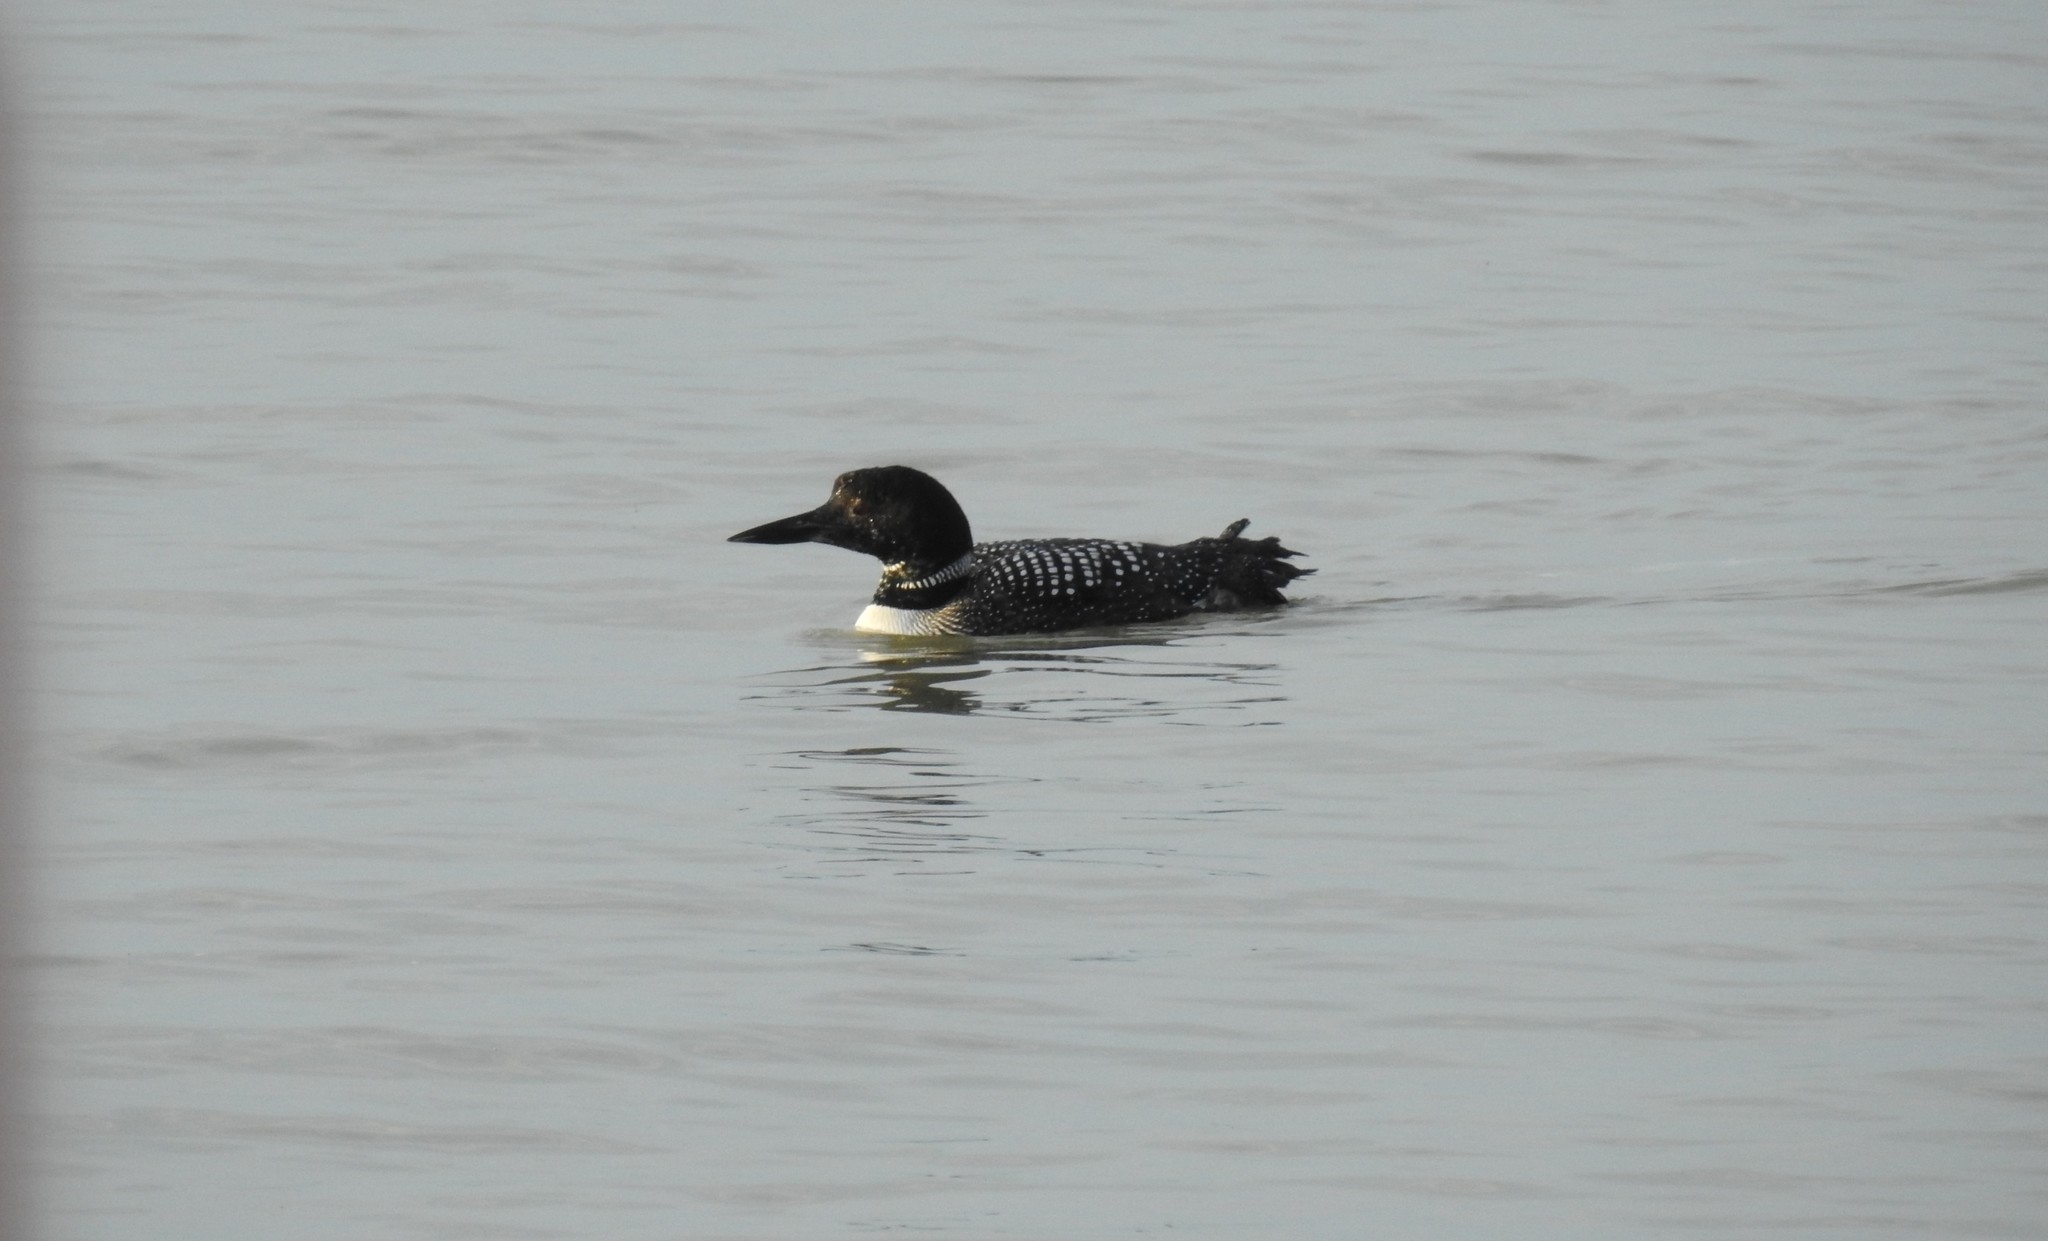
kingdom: Animalia
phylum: Chordata
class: Aves
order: Gaviiformes
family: Gaviidae
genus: Gavia
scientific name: Gavia immer
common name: Common loon
